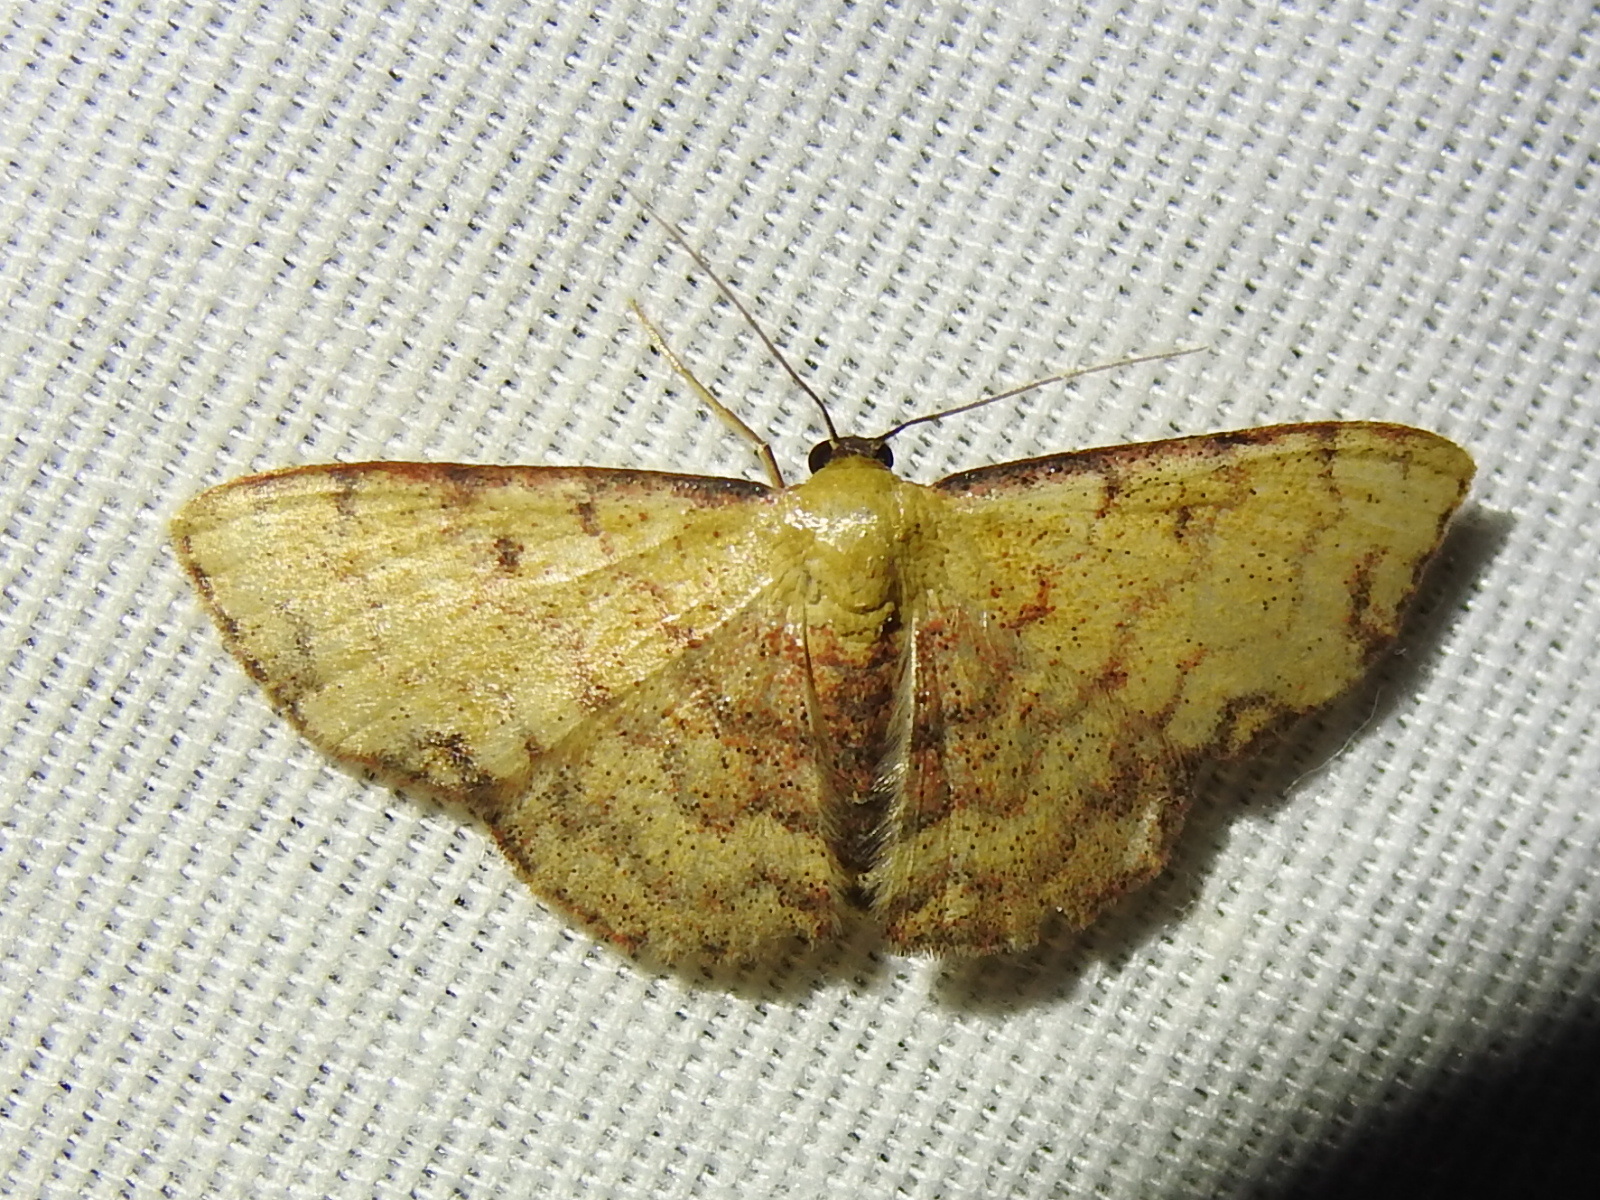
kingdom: Animalia
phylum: Arthropoda
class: Insecta
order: Lepidoptera
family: Geometridae
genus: Semaeopus
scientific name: Semaeopus marginata
